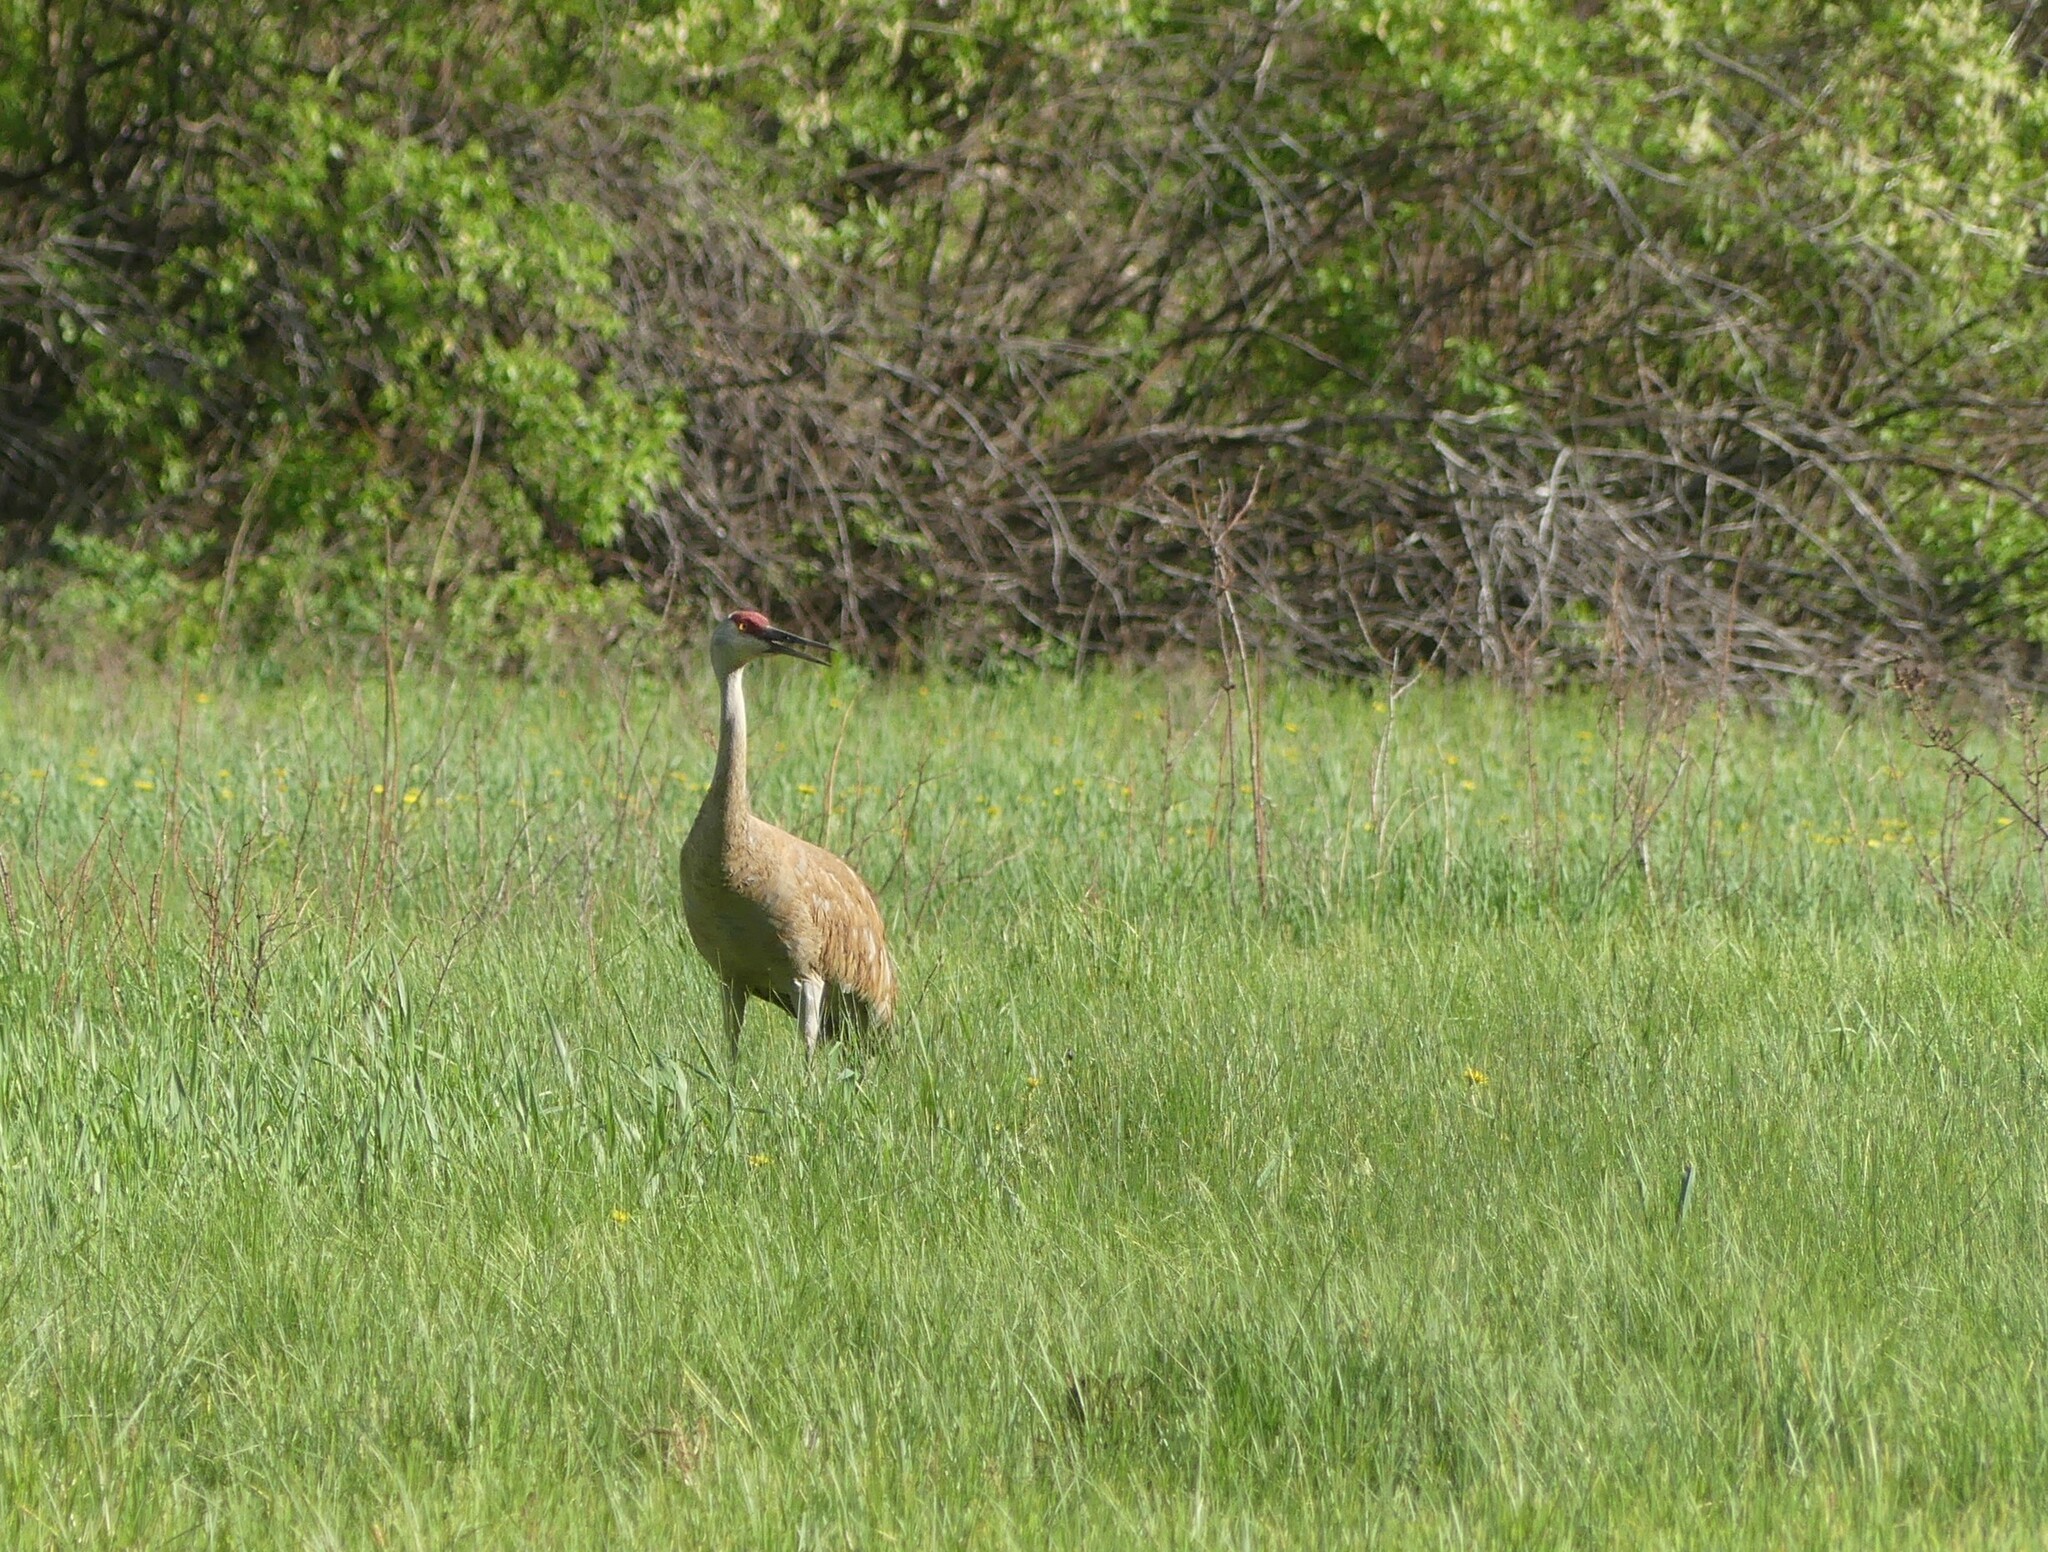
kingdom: Animalia
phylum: Chordata
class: Aves
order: Gruiformes
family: Gruidae
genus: Grus
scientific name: Grus canadensis
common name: Sandhill crane
